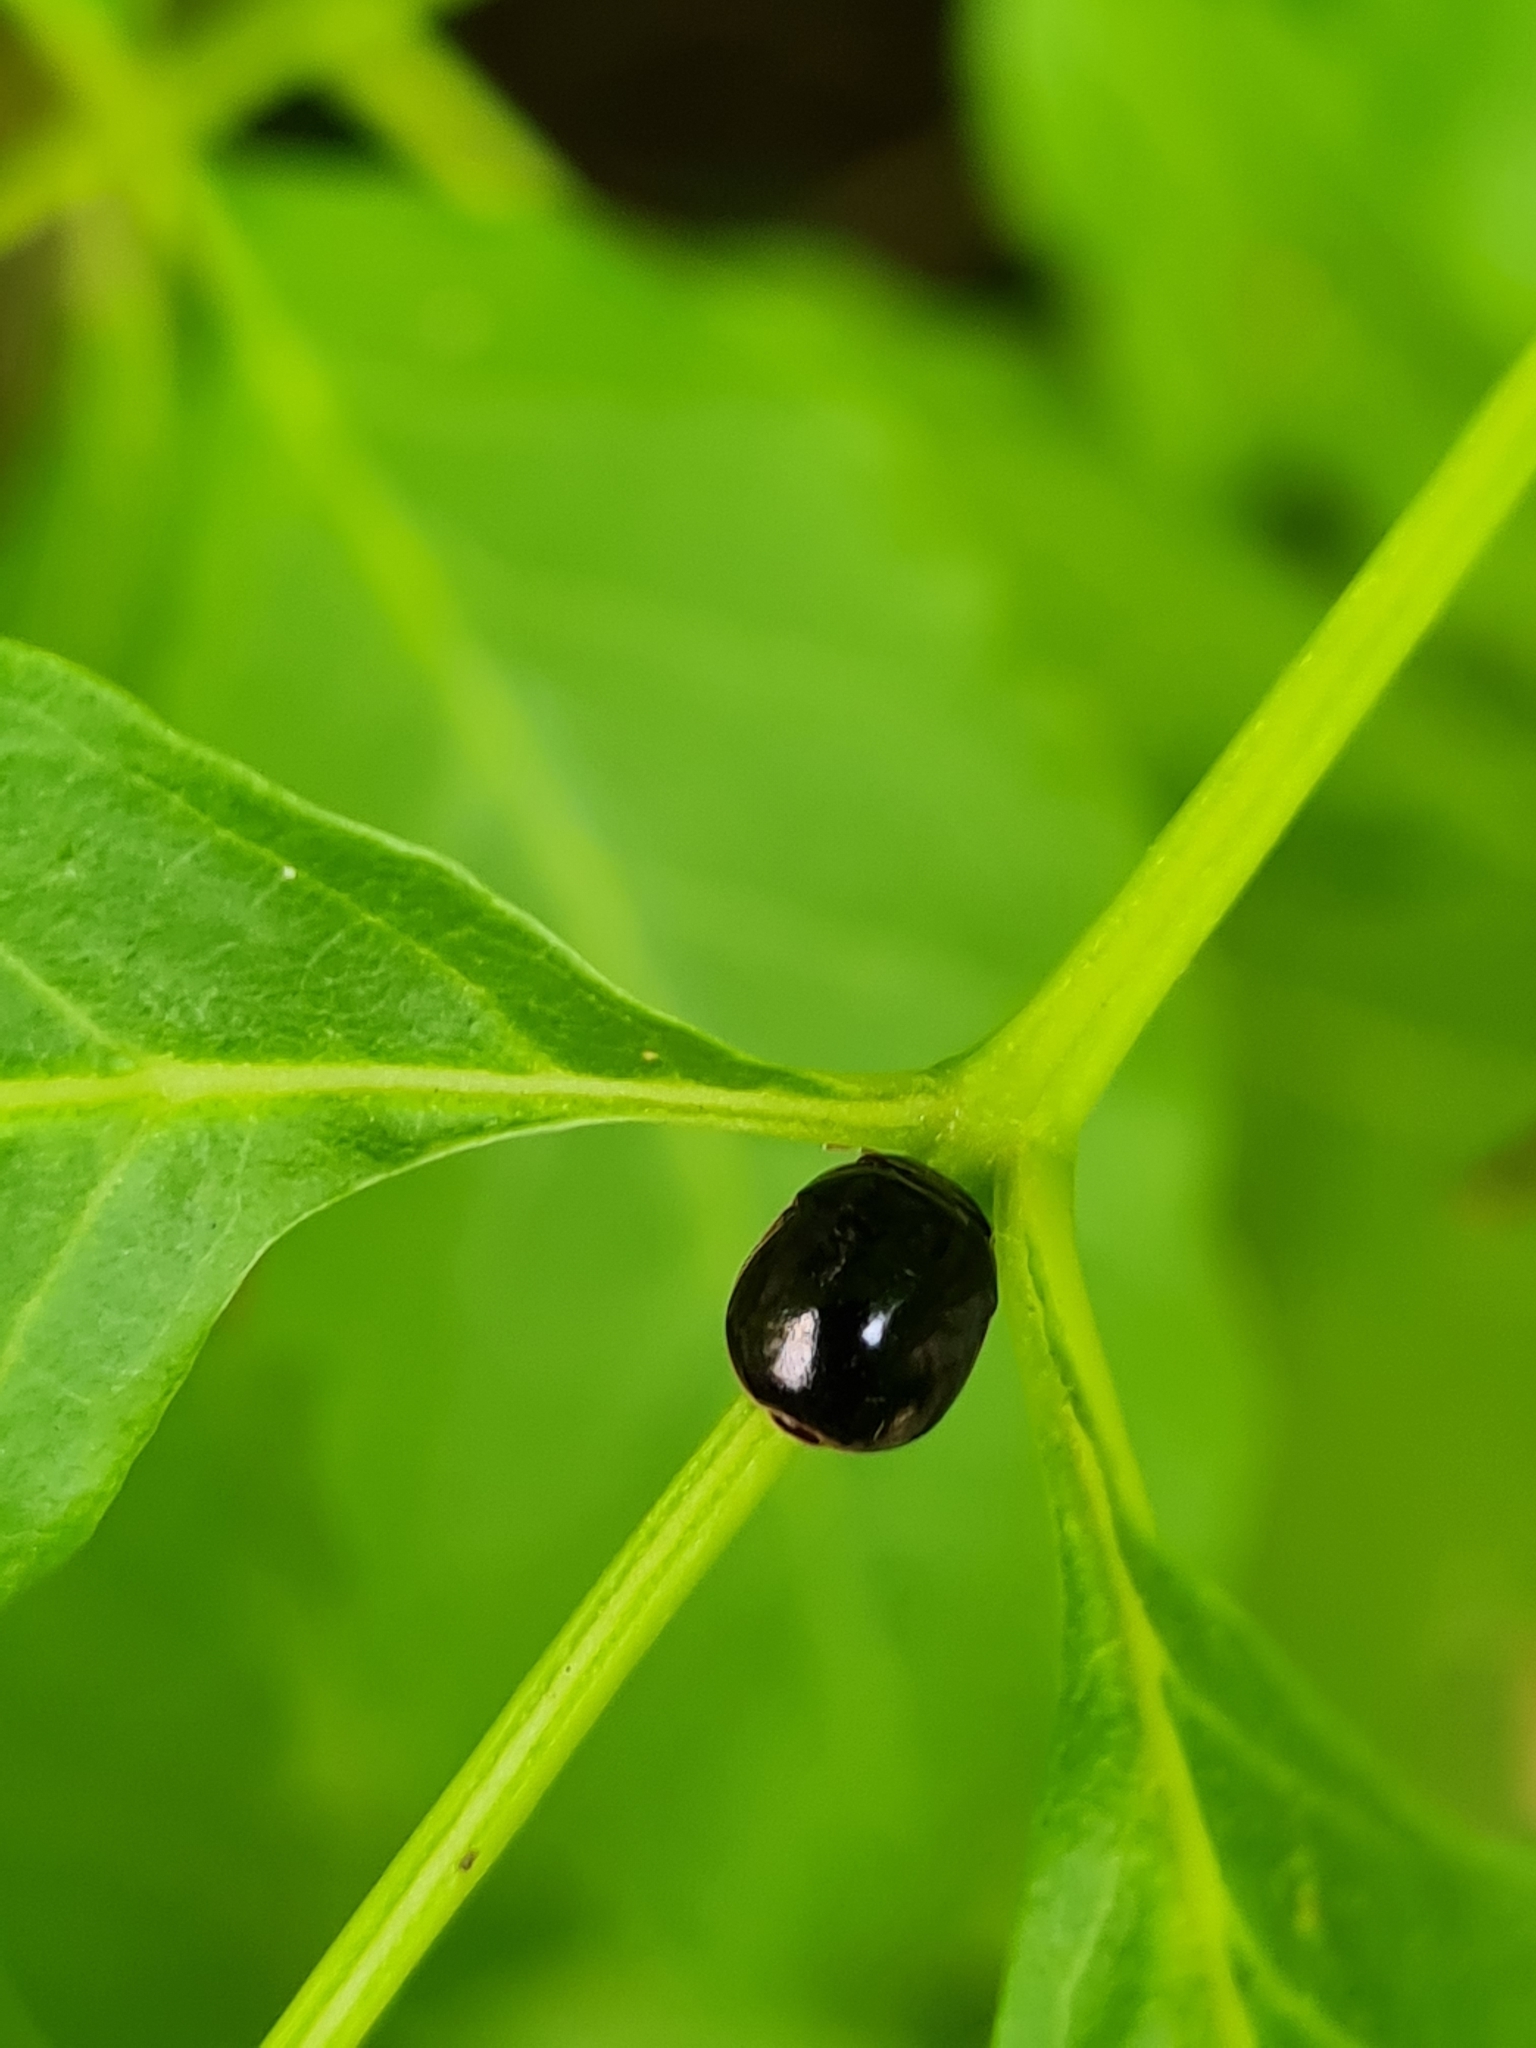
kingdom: Animalia
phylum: Arthropoda
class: Insecta
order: Hemiptera
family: Plataspidae
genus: Brachyplatys
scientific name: Brachyplatys subaeneus
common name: Black bean bug
